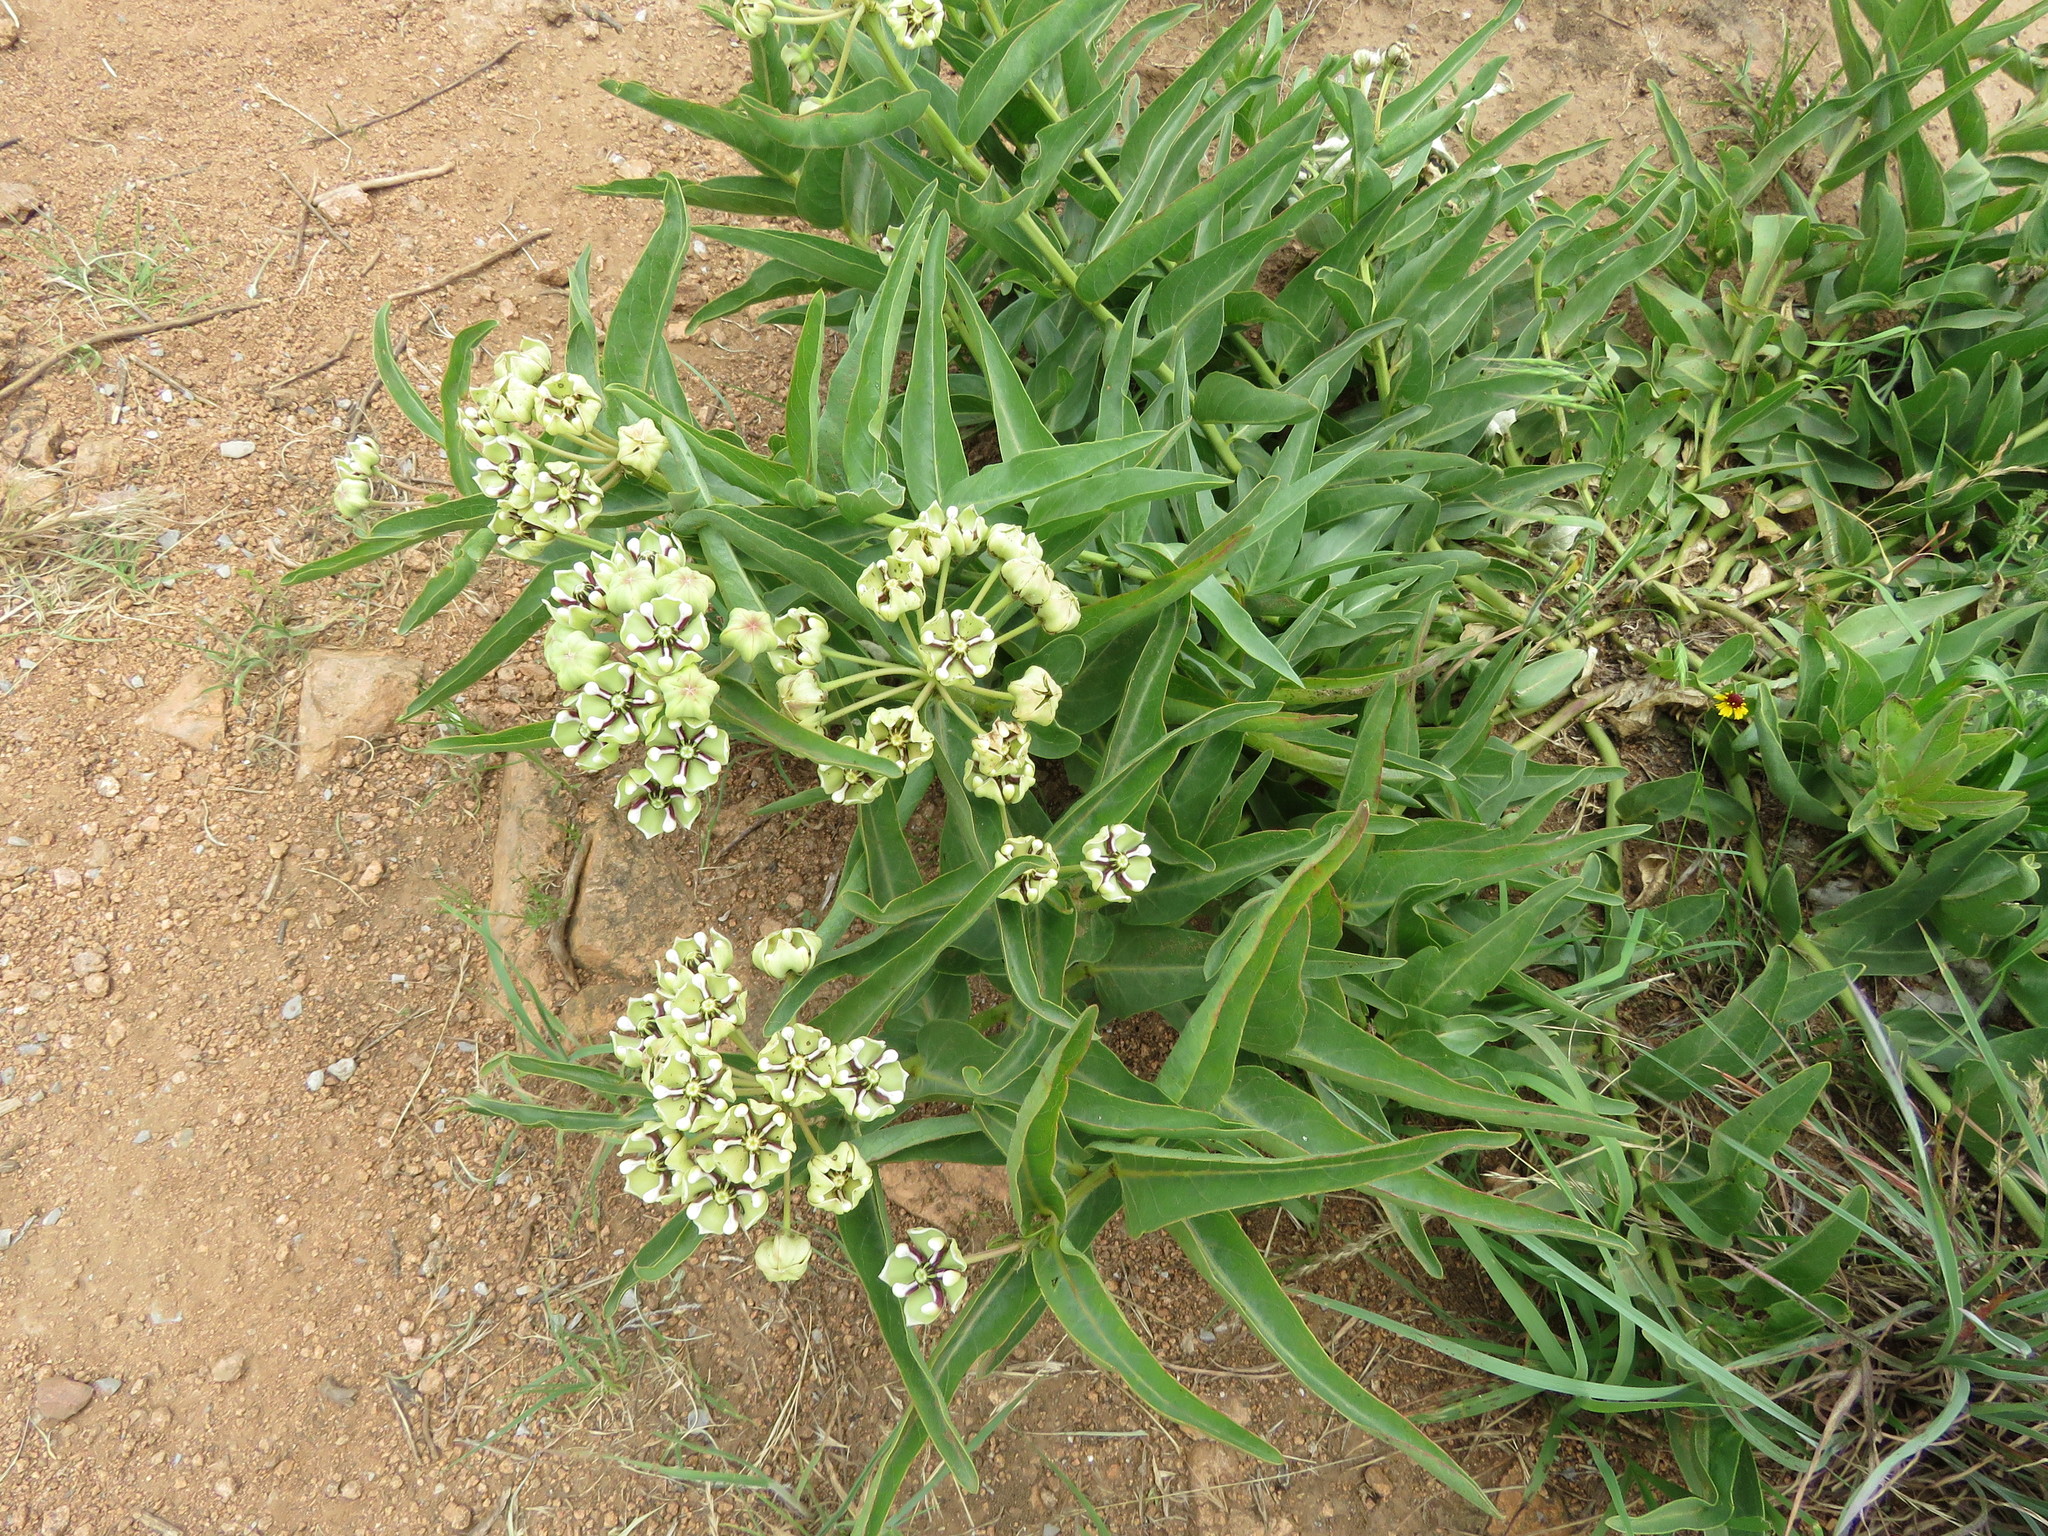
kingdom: Plantae
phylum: Tracheophyta
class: Magnoliopsida
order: Gentianales
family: Apocynaceae
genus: Asclepias
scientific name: Asclepias asperula
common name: Antelope horns
